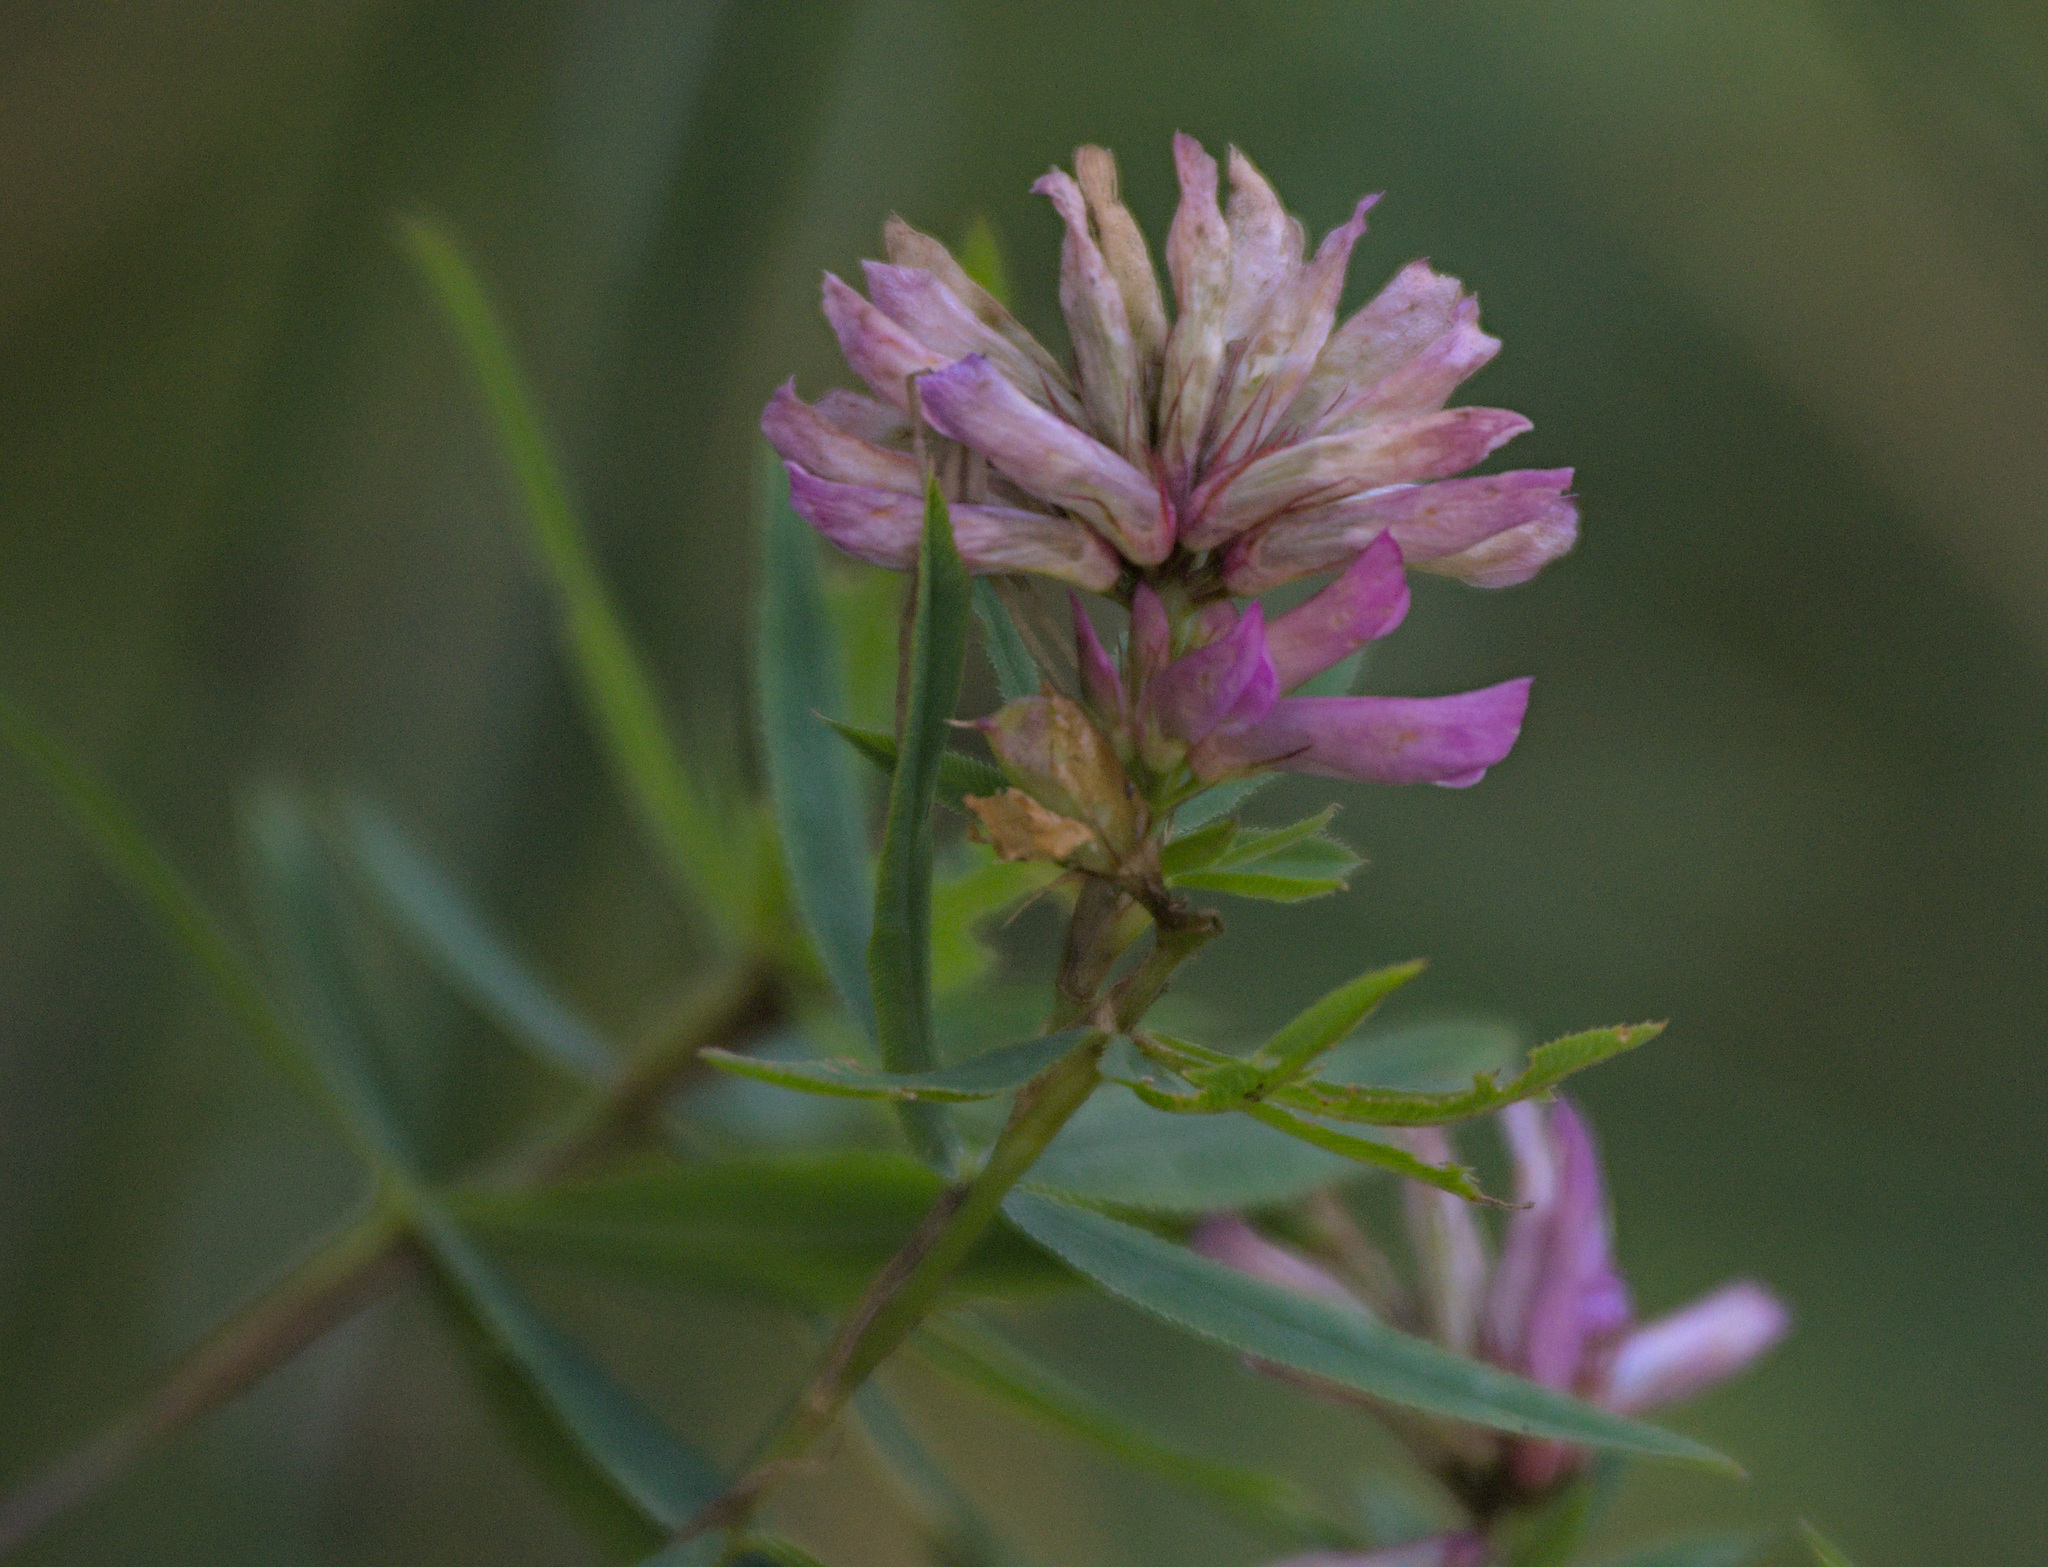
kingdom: Plantae
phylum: Tracheophyta
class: Magnoliopsida
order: Fabales
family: Fabaceae
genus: Trifolium
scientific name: Trifolium lupinaster
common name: Lupine clover
